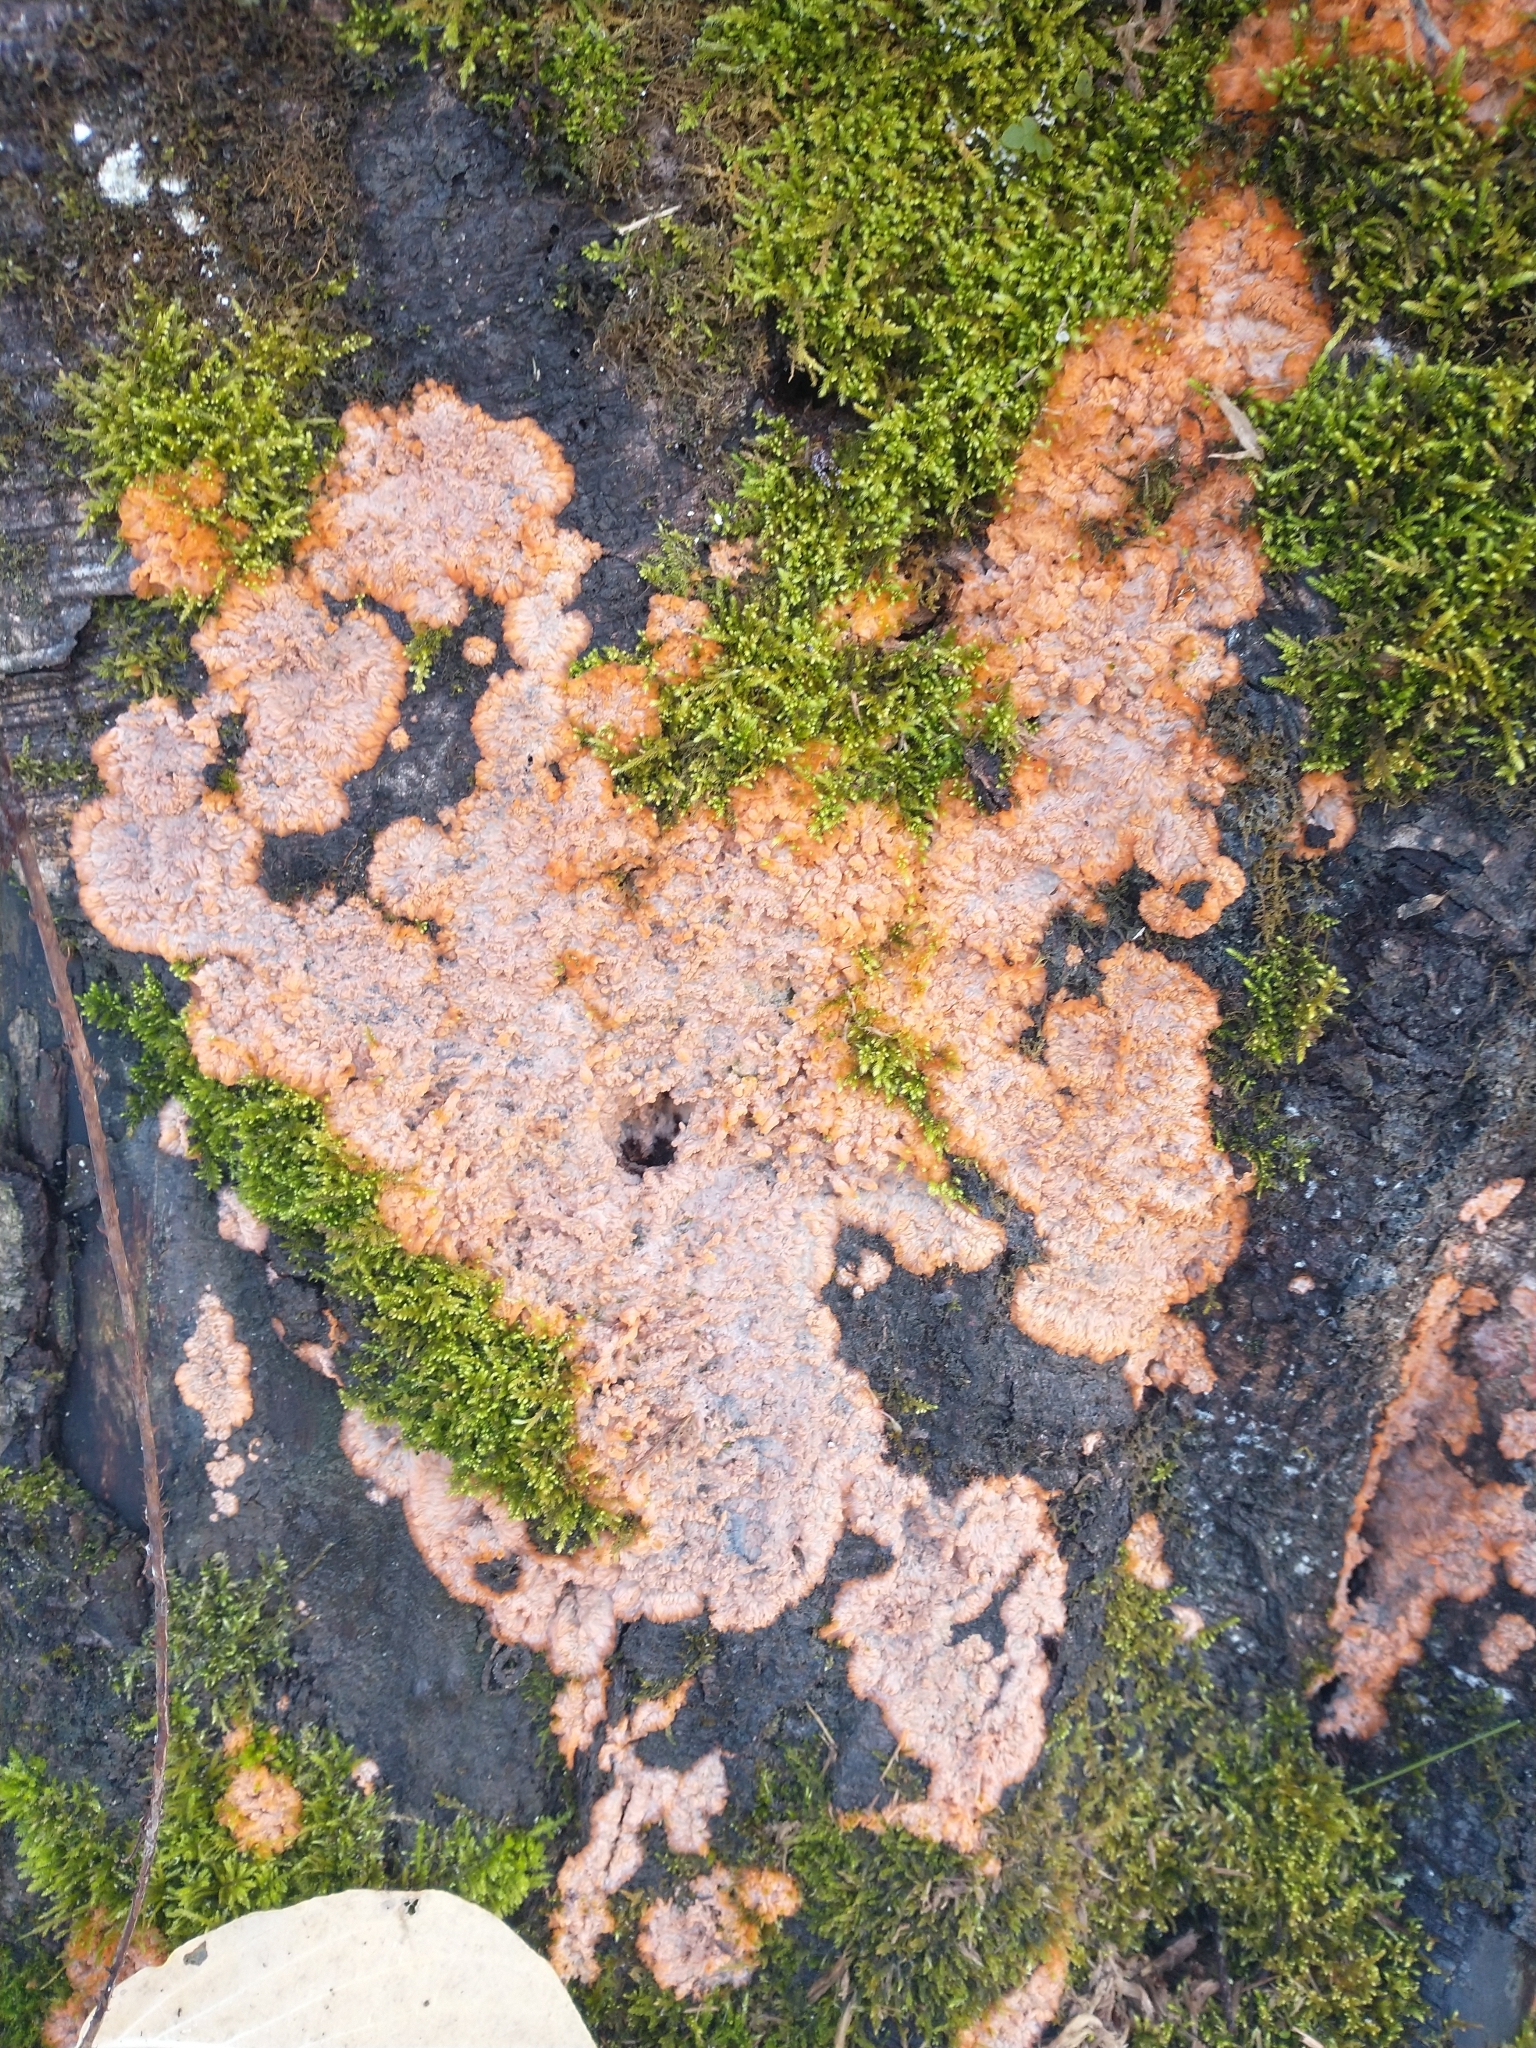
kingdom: Fungi
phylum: Basidiomycota
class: Agaricomycetes
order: Polyporales
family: Meruliaceae
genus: Phlebia
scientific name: Phlebia radiata
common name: Wrinkled crust
